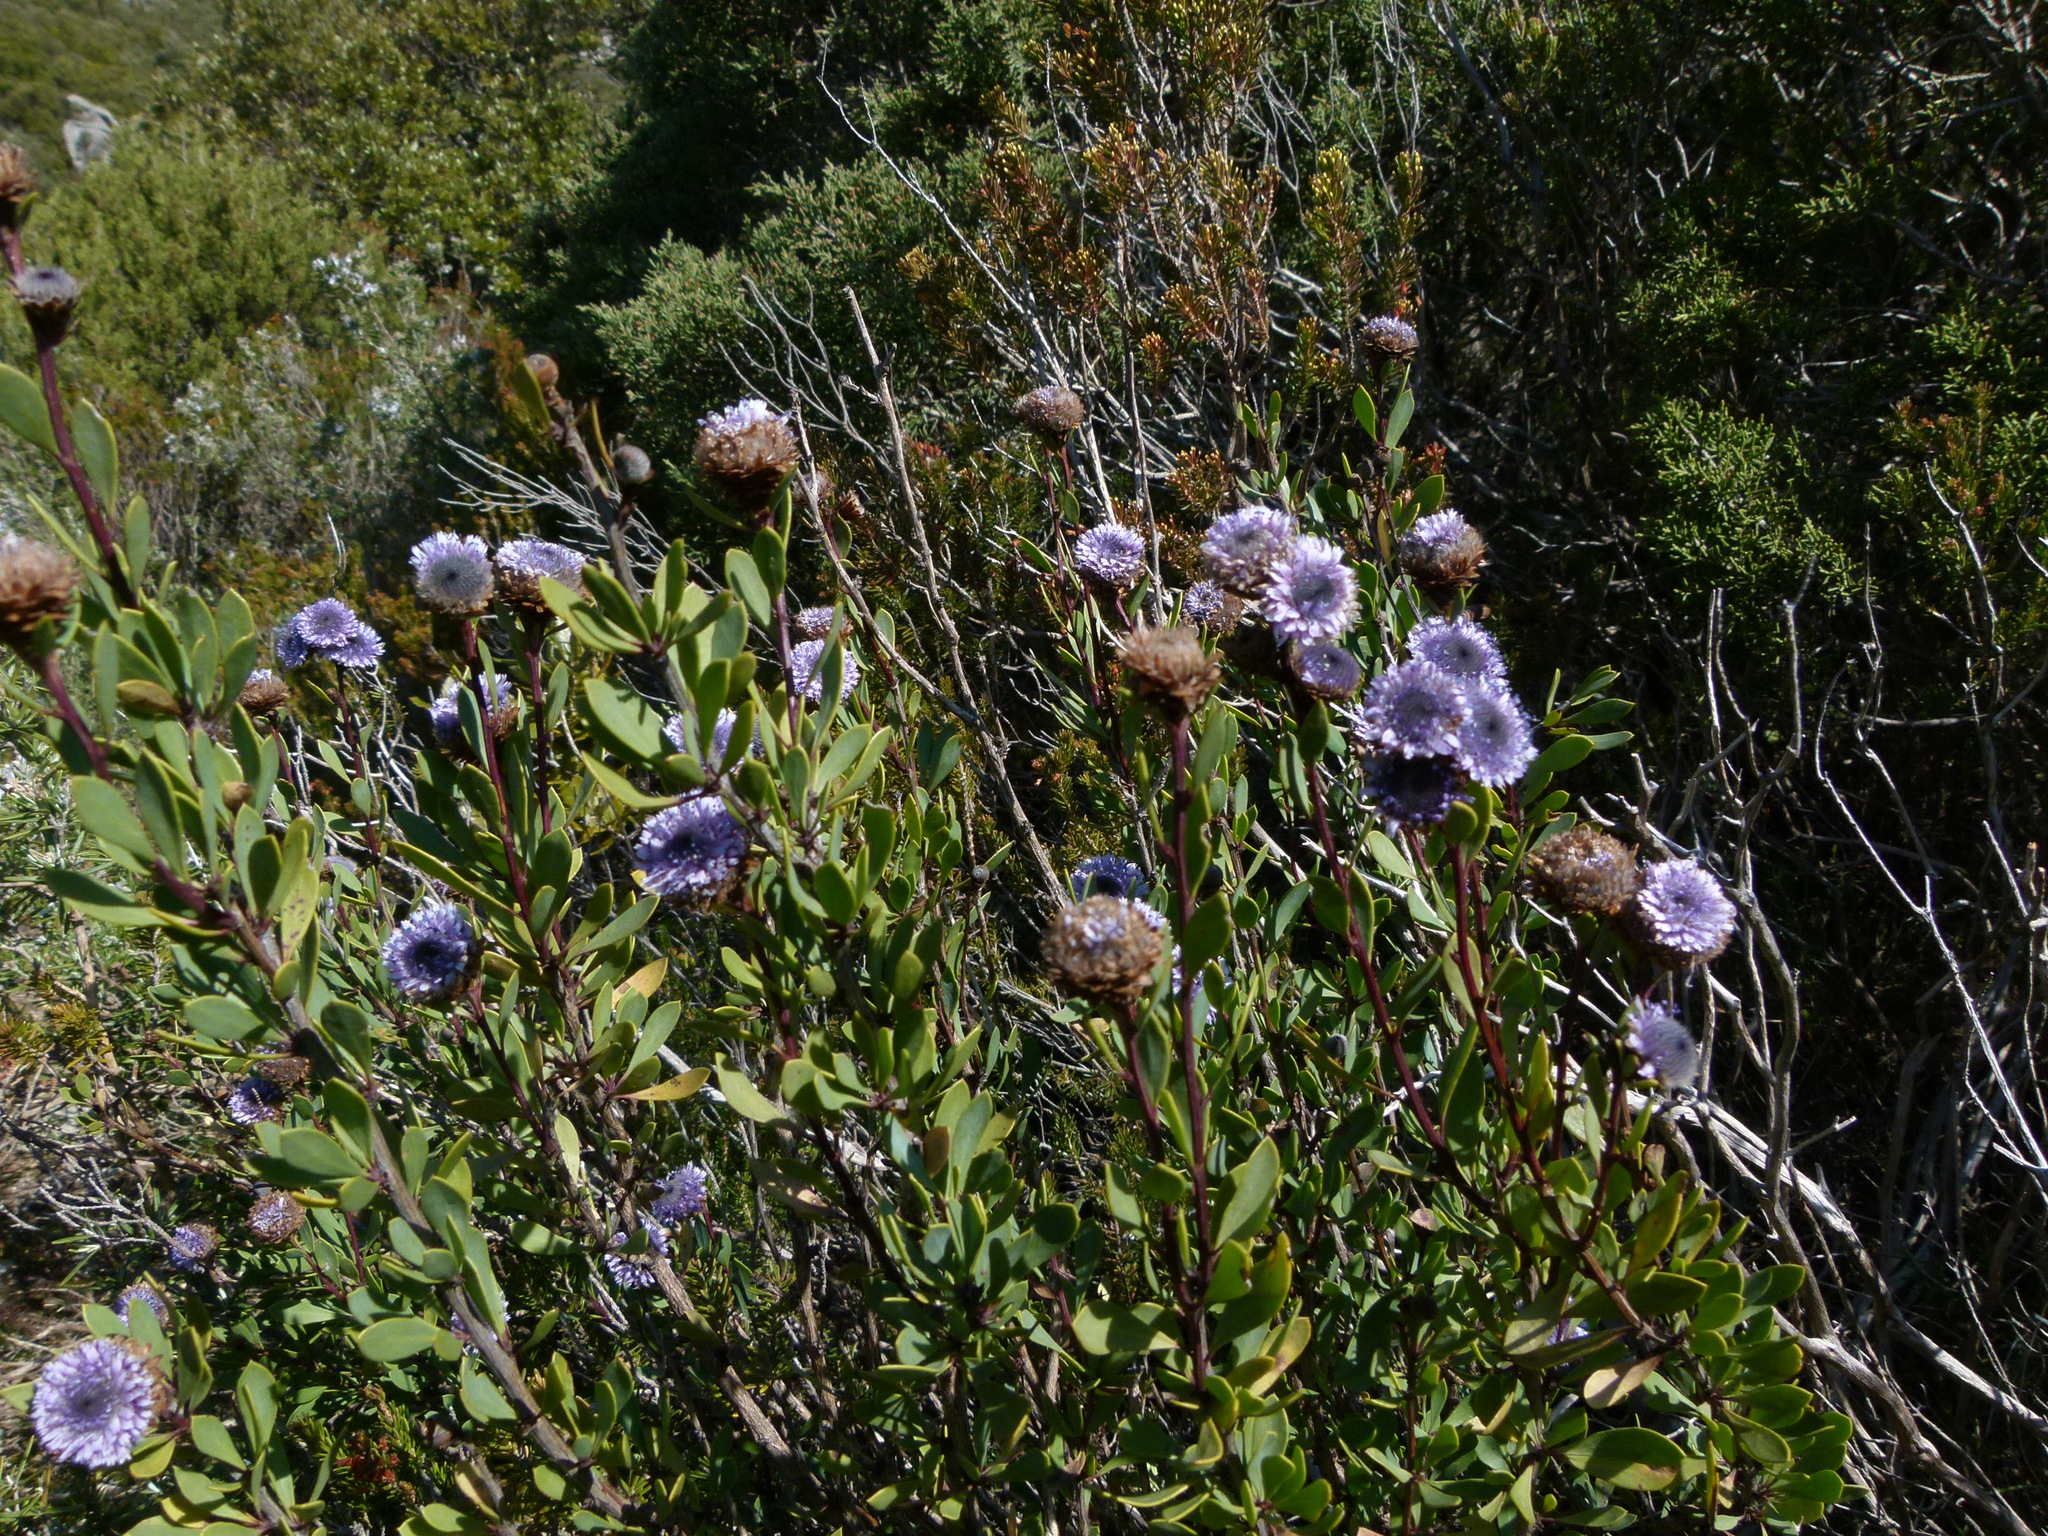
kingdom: Plantae
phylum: Tracheophyta
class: Magnoliopsida
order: Lamiales
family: Plantaginaceae
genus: Globularia
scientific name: Globularia alypum
